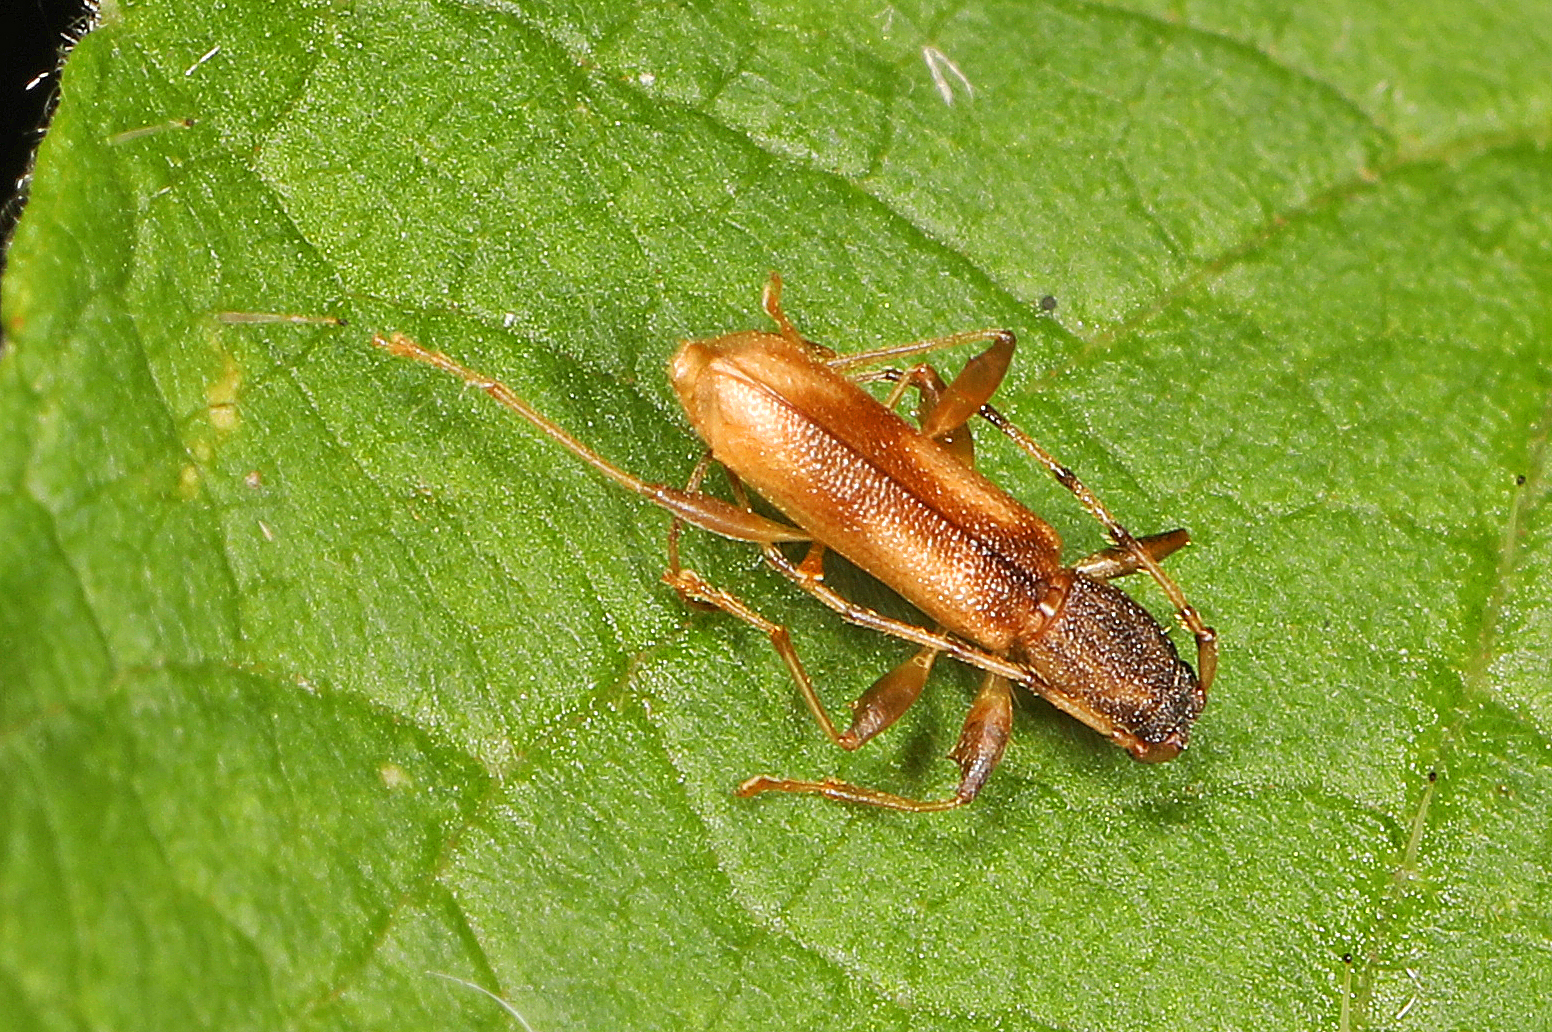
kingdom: Animalia
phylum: Arthropoda
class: Insecta
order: Coleoptera
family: Cerambycidae
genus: Curius
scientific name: Curius dentatus
